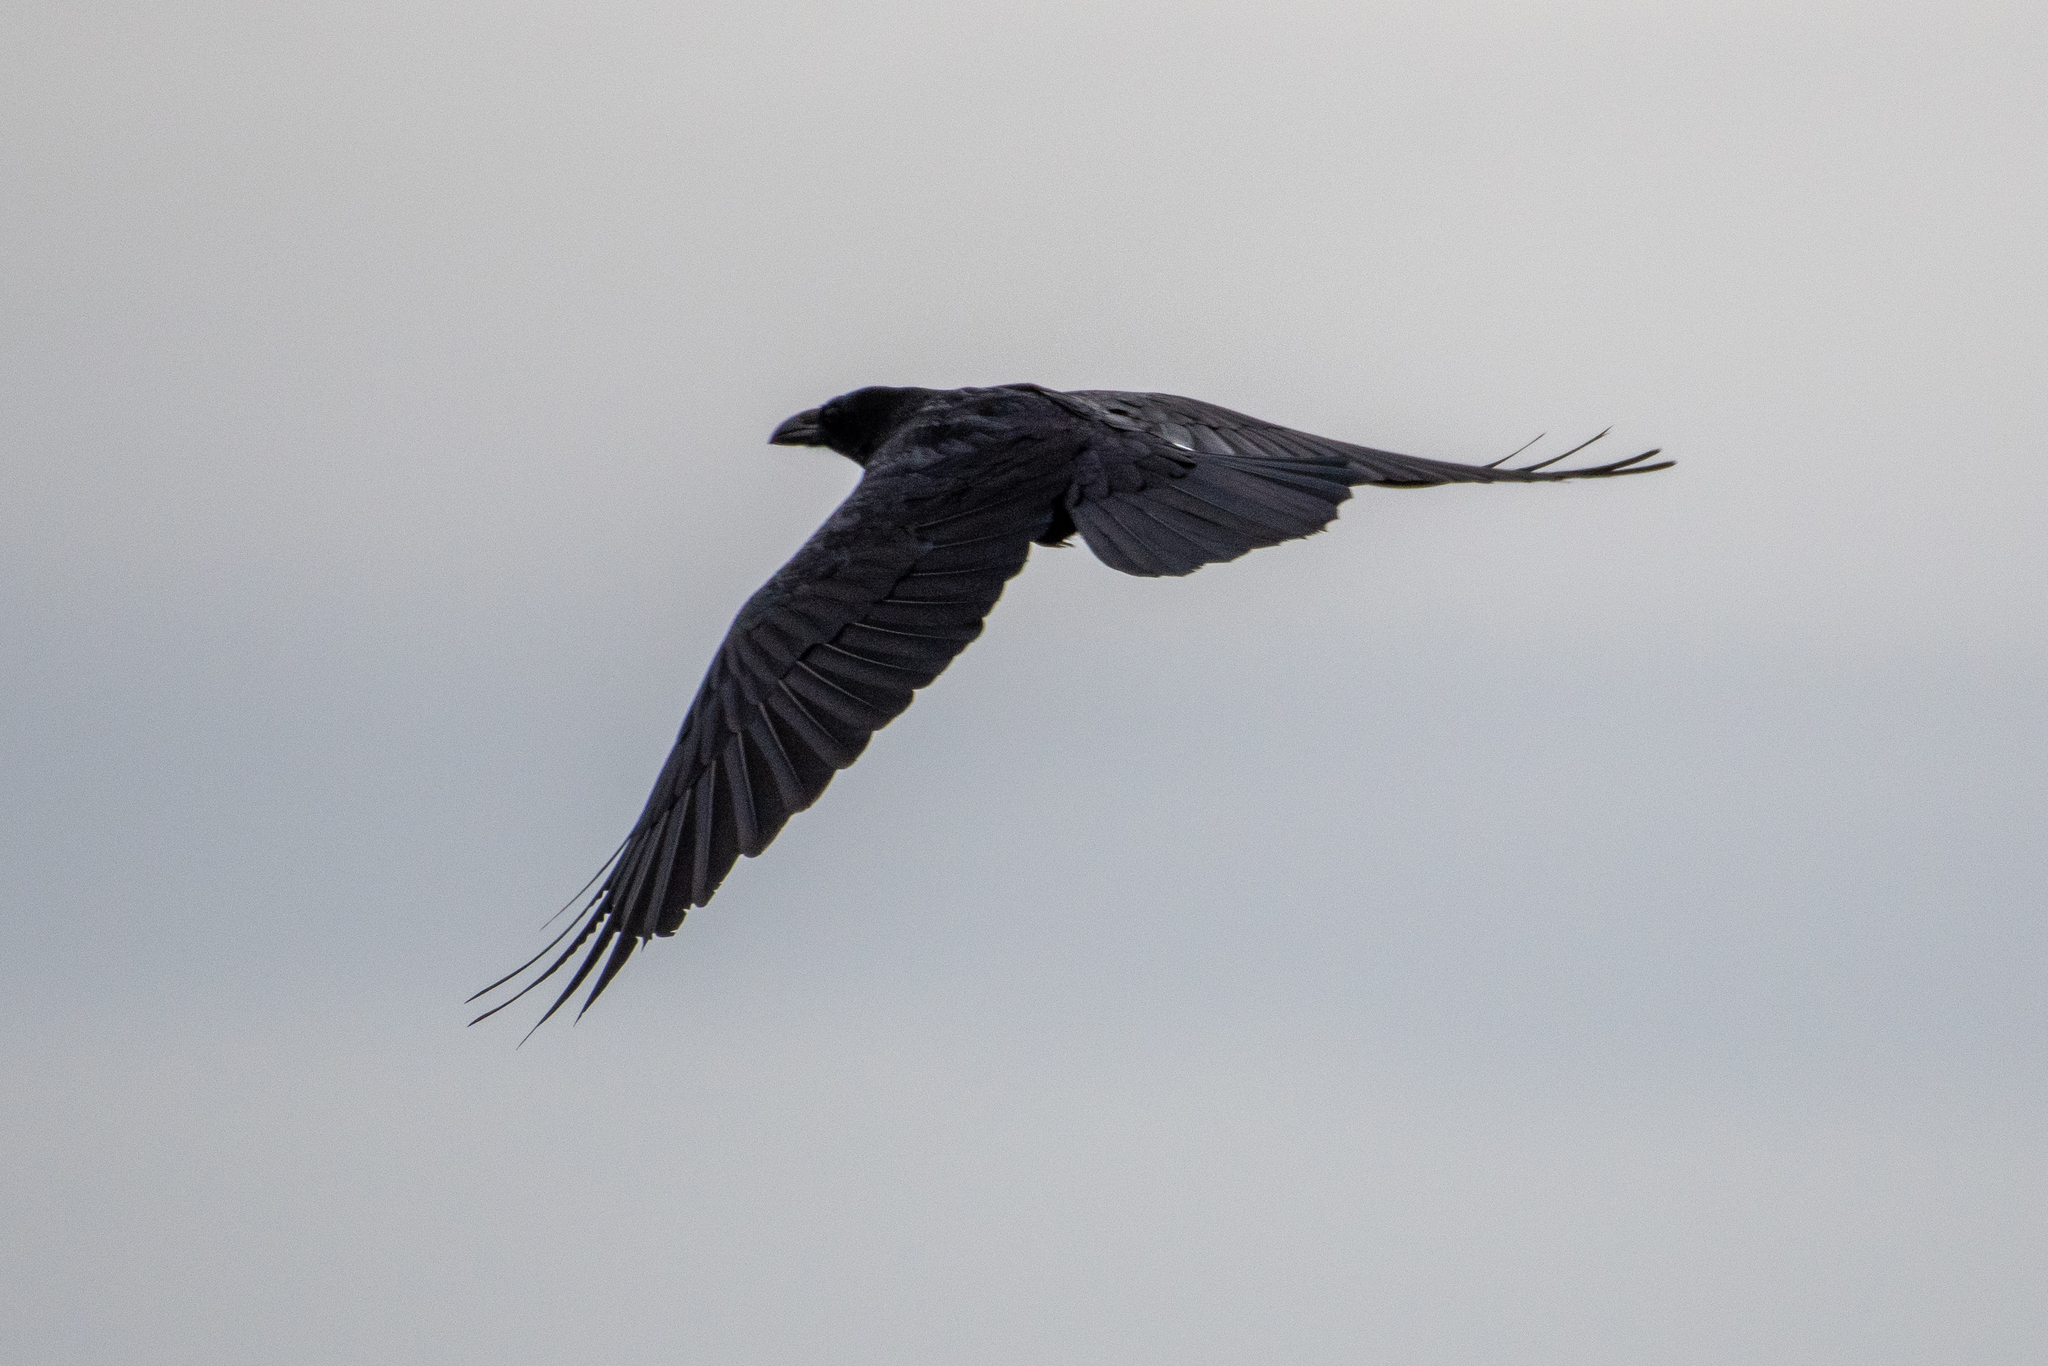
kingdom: Animalia
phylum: Chordata
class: Aves
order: Passeriformes
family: Corvidae
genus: Corvus
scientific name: Corvus corax
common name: Common raven
